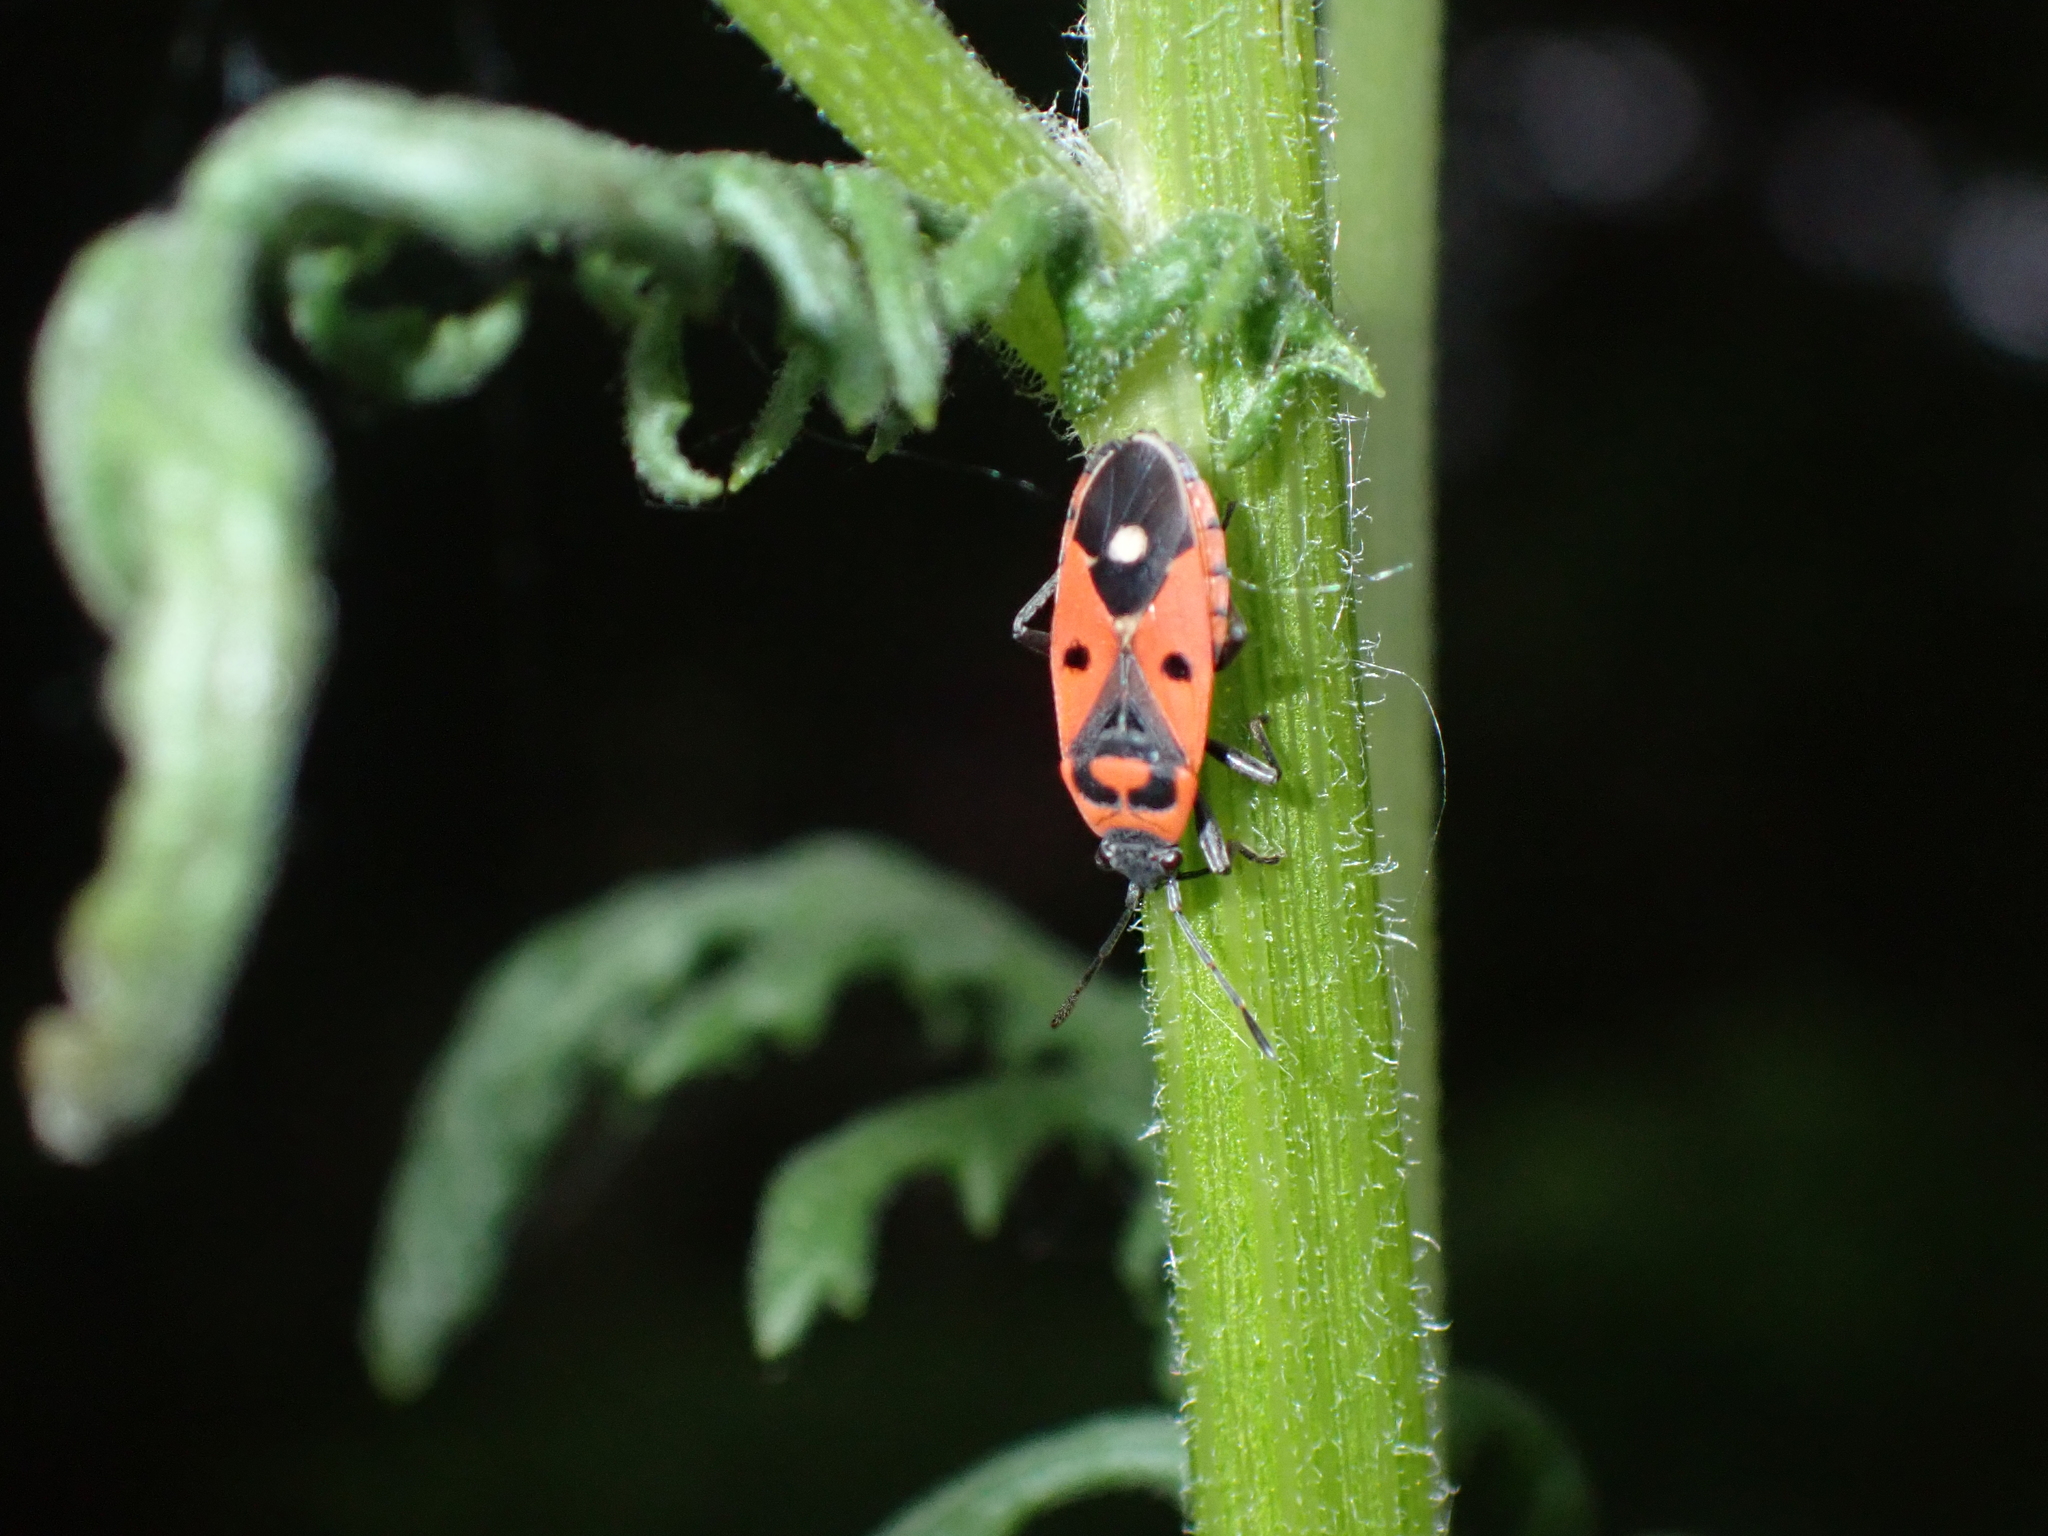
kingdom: Animalia
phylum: Arthropoda
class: Insecta
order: Hemiptera
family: Lygaeidae
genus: Melanocoryphus
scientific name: Melanocoryphus albomaculatus
